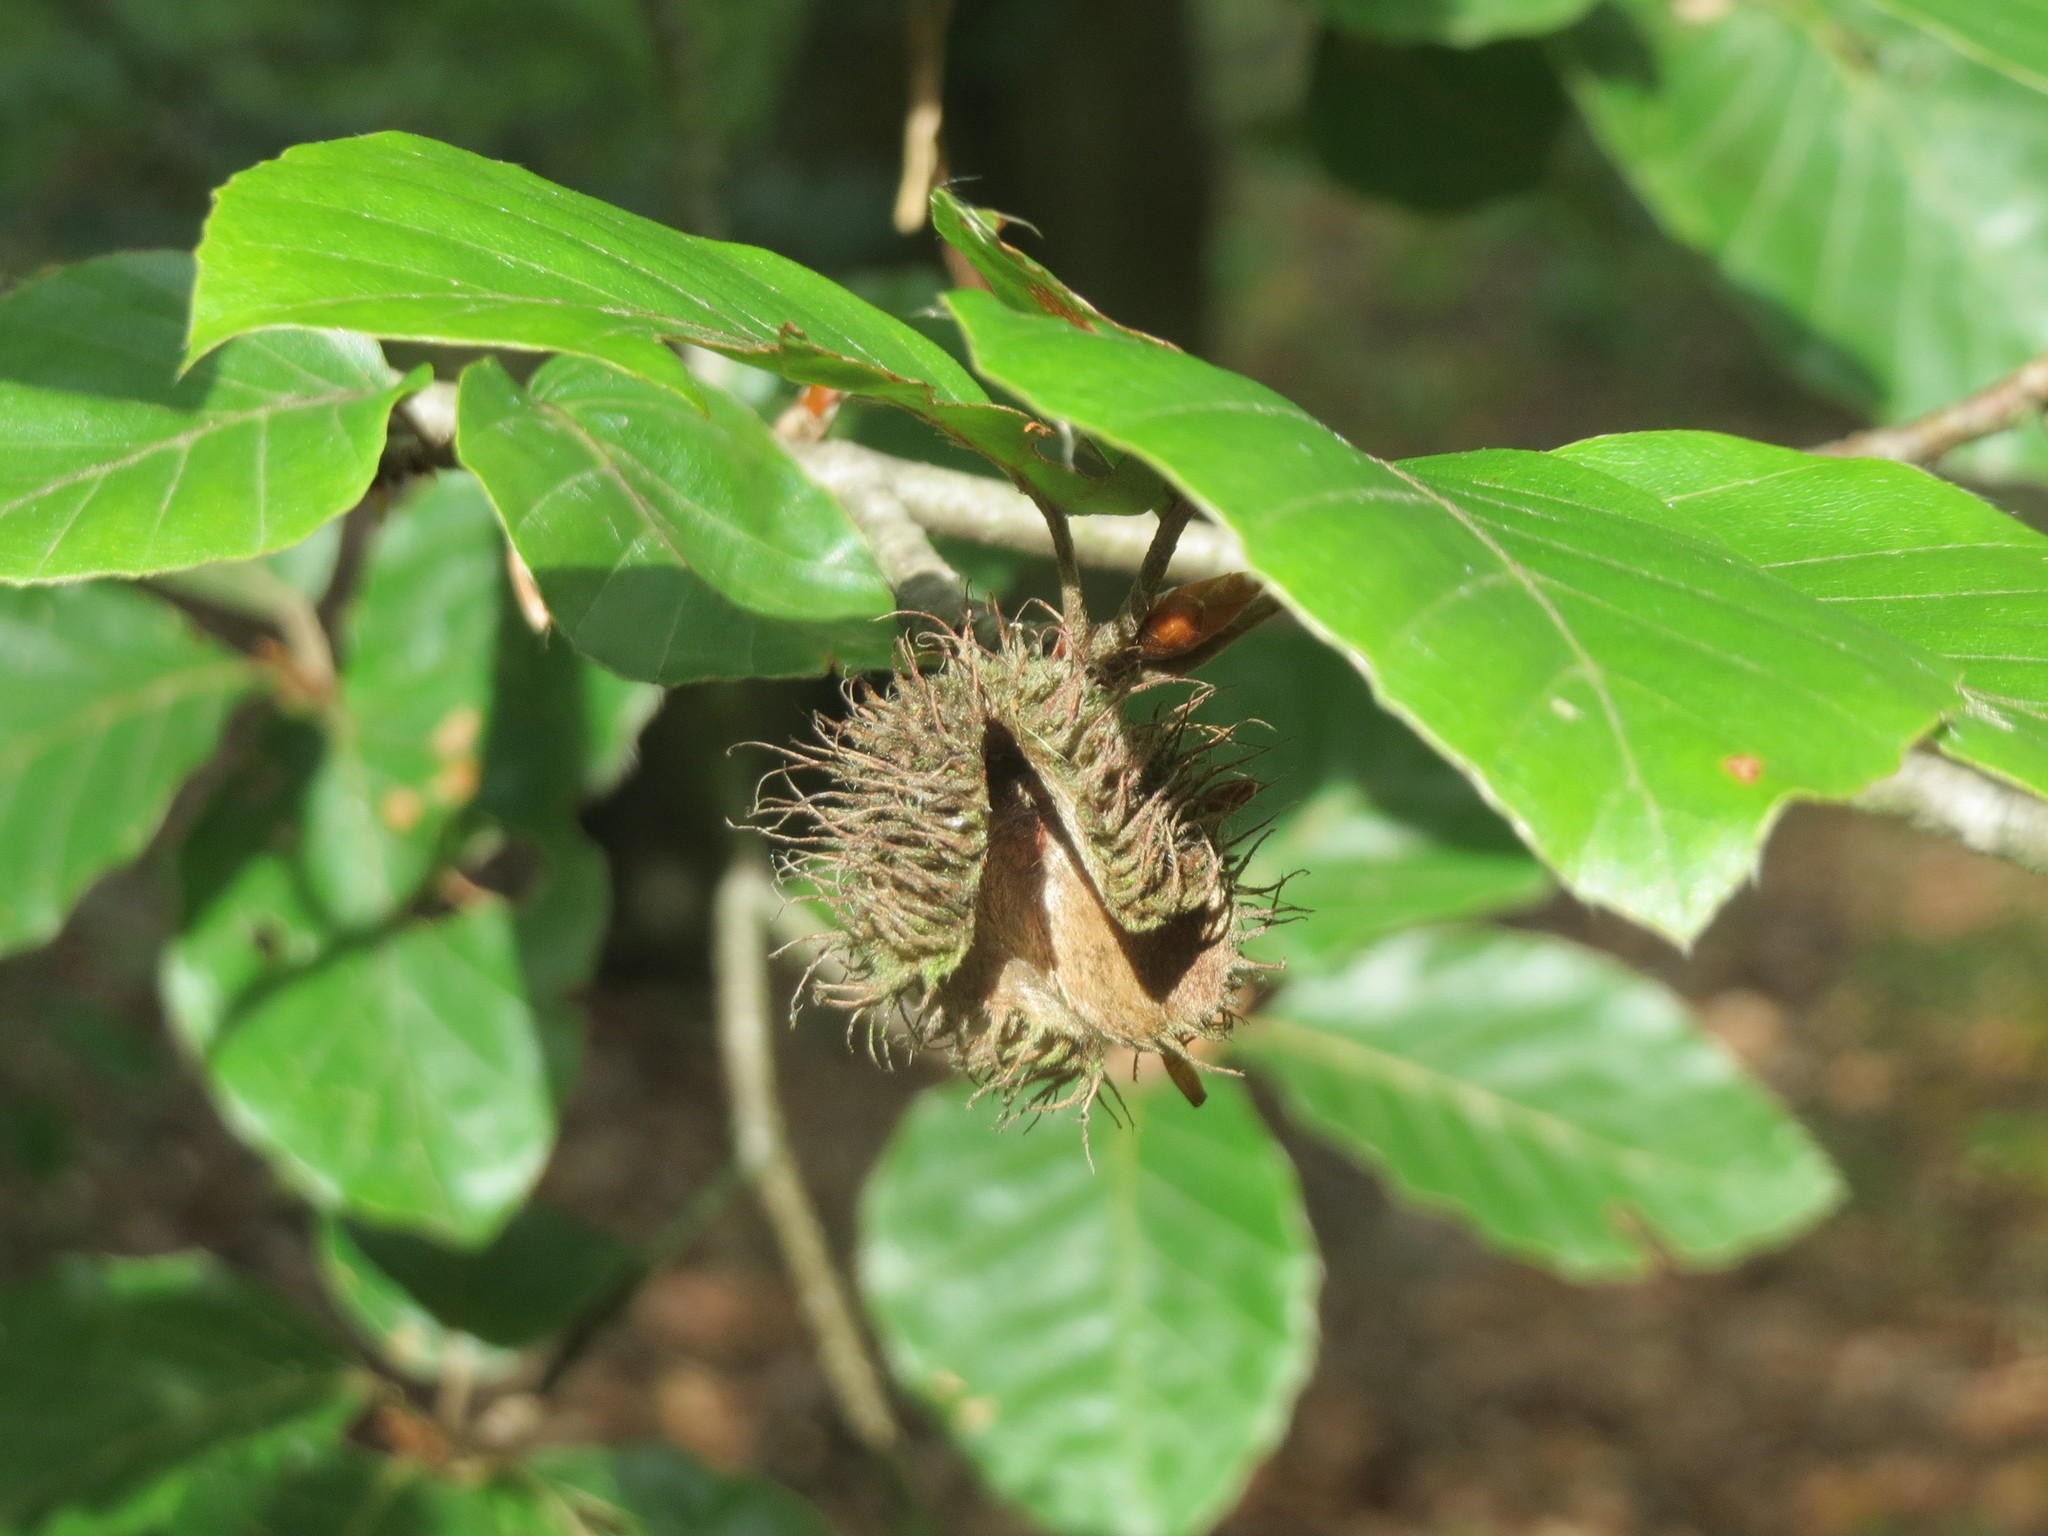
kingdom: Plantae
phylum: Tracheophyta
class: Magnoliopsida
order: Fagales
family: Fagaceae
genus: Fagus
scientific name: Fagus sylvatica
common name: Beech
